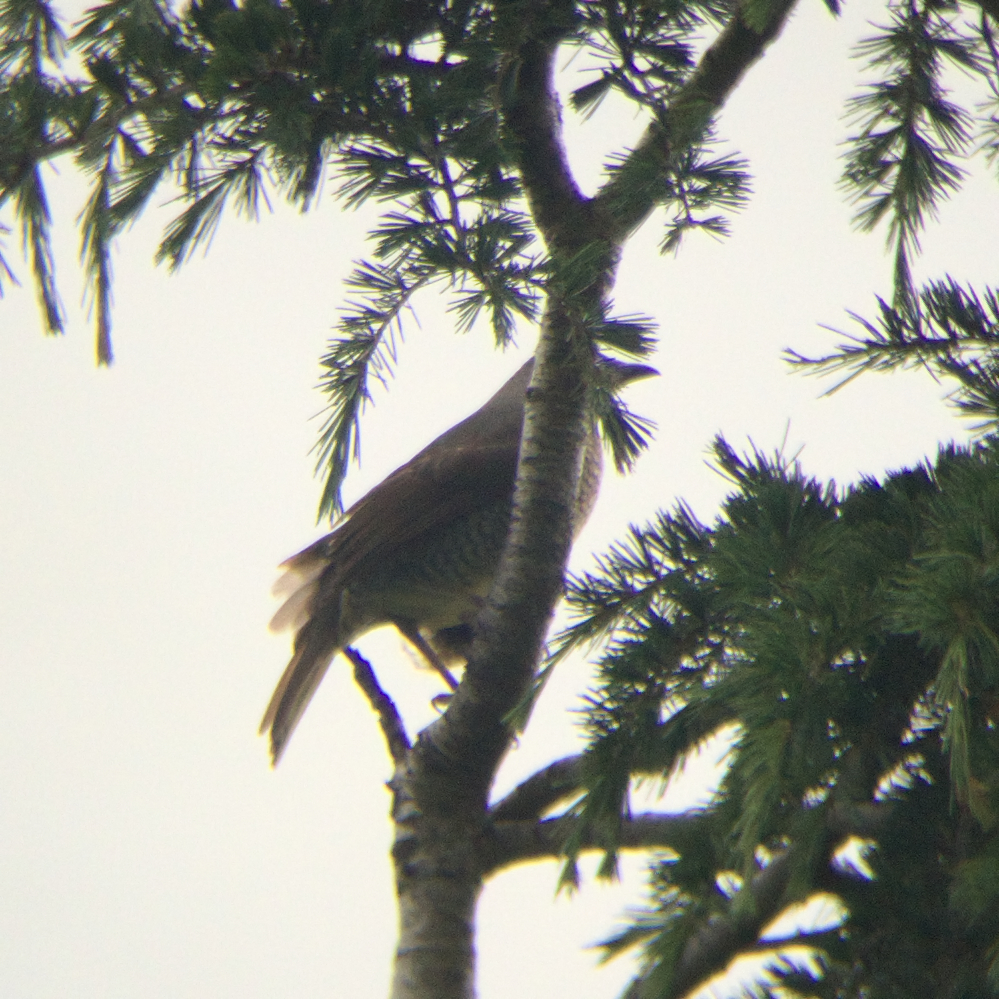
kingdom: Animalia
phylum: Chordata
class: Aves
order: Passeriformes
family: Ptilonorhynchidae
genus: Ptilonorhynchus
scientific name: Ptilonorhynchus violaceus
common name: Satin bowerbird
